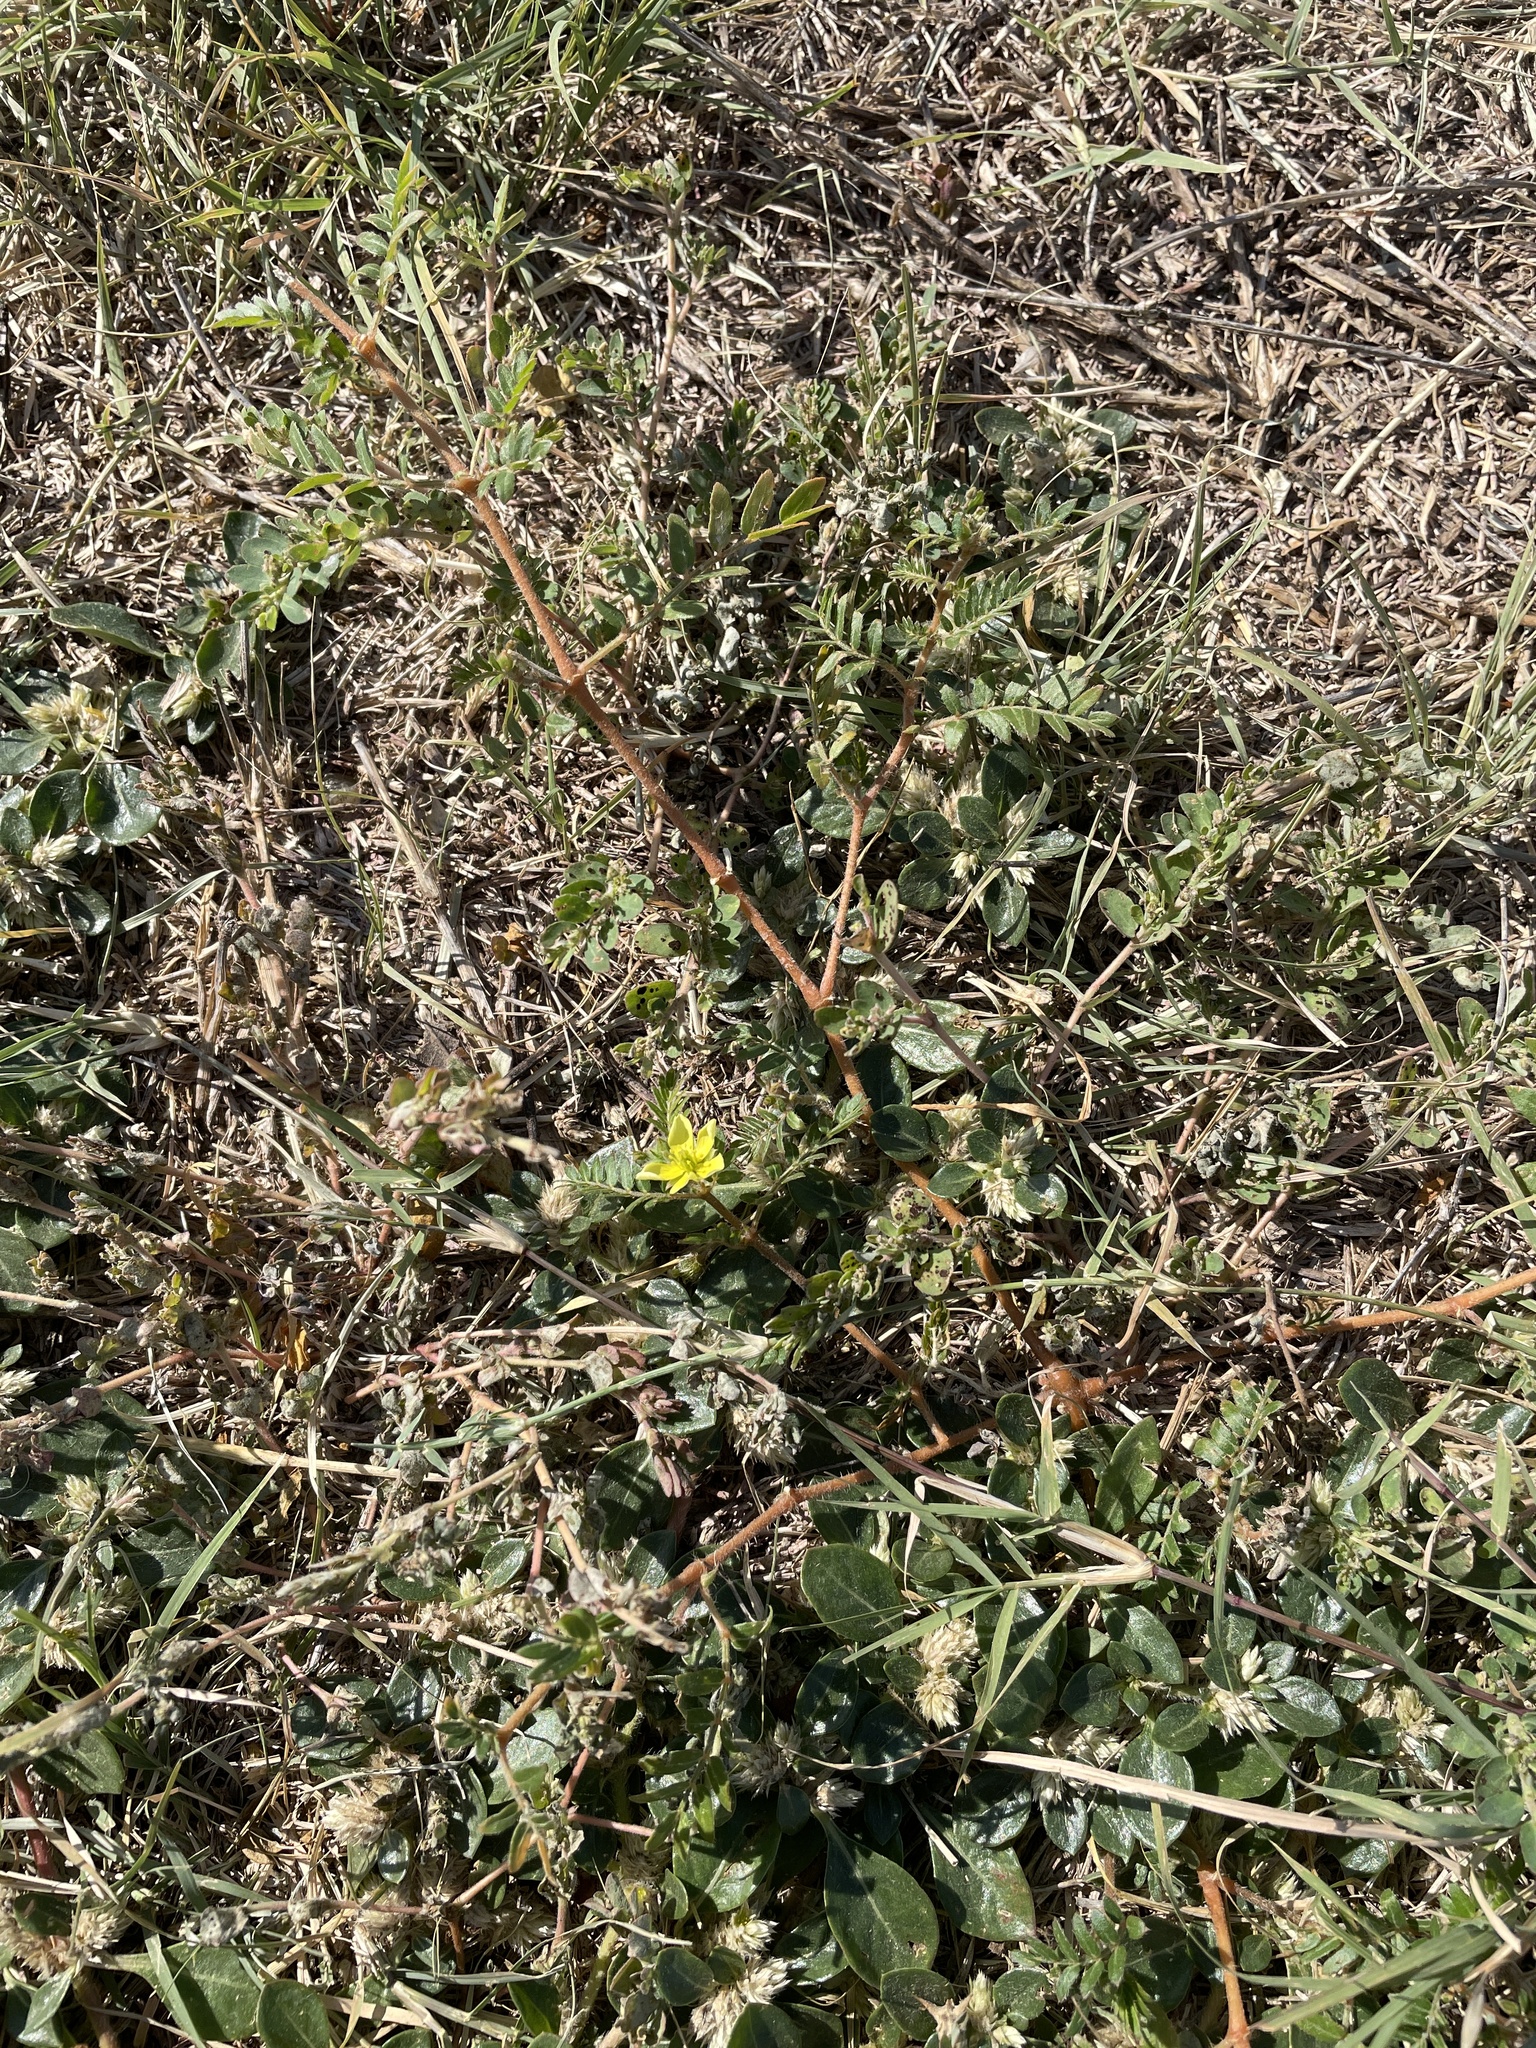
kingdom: Plantae
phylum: Tracheophyta
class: Magnoliopsida
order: Zygophyllales
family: Zygophyllaceae
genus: Tribulus
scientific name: Tribulus terrestris
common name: Puncturevine
